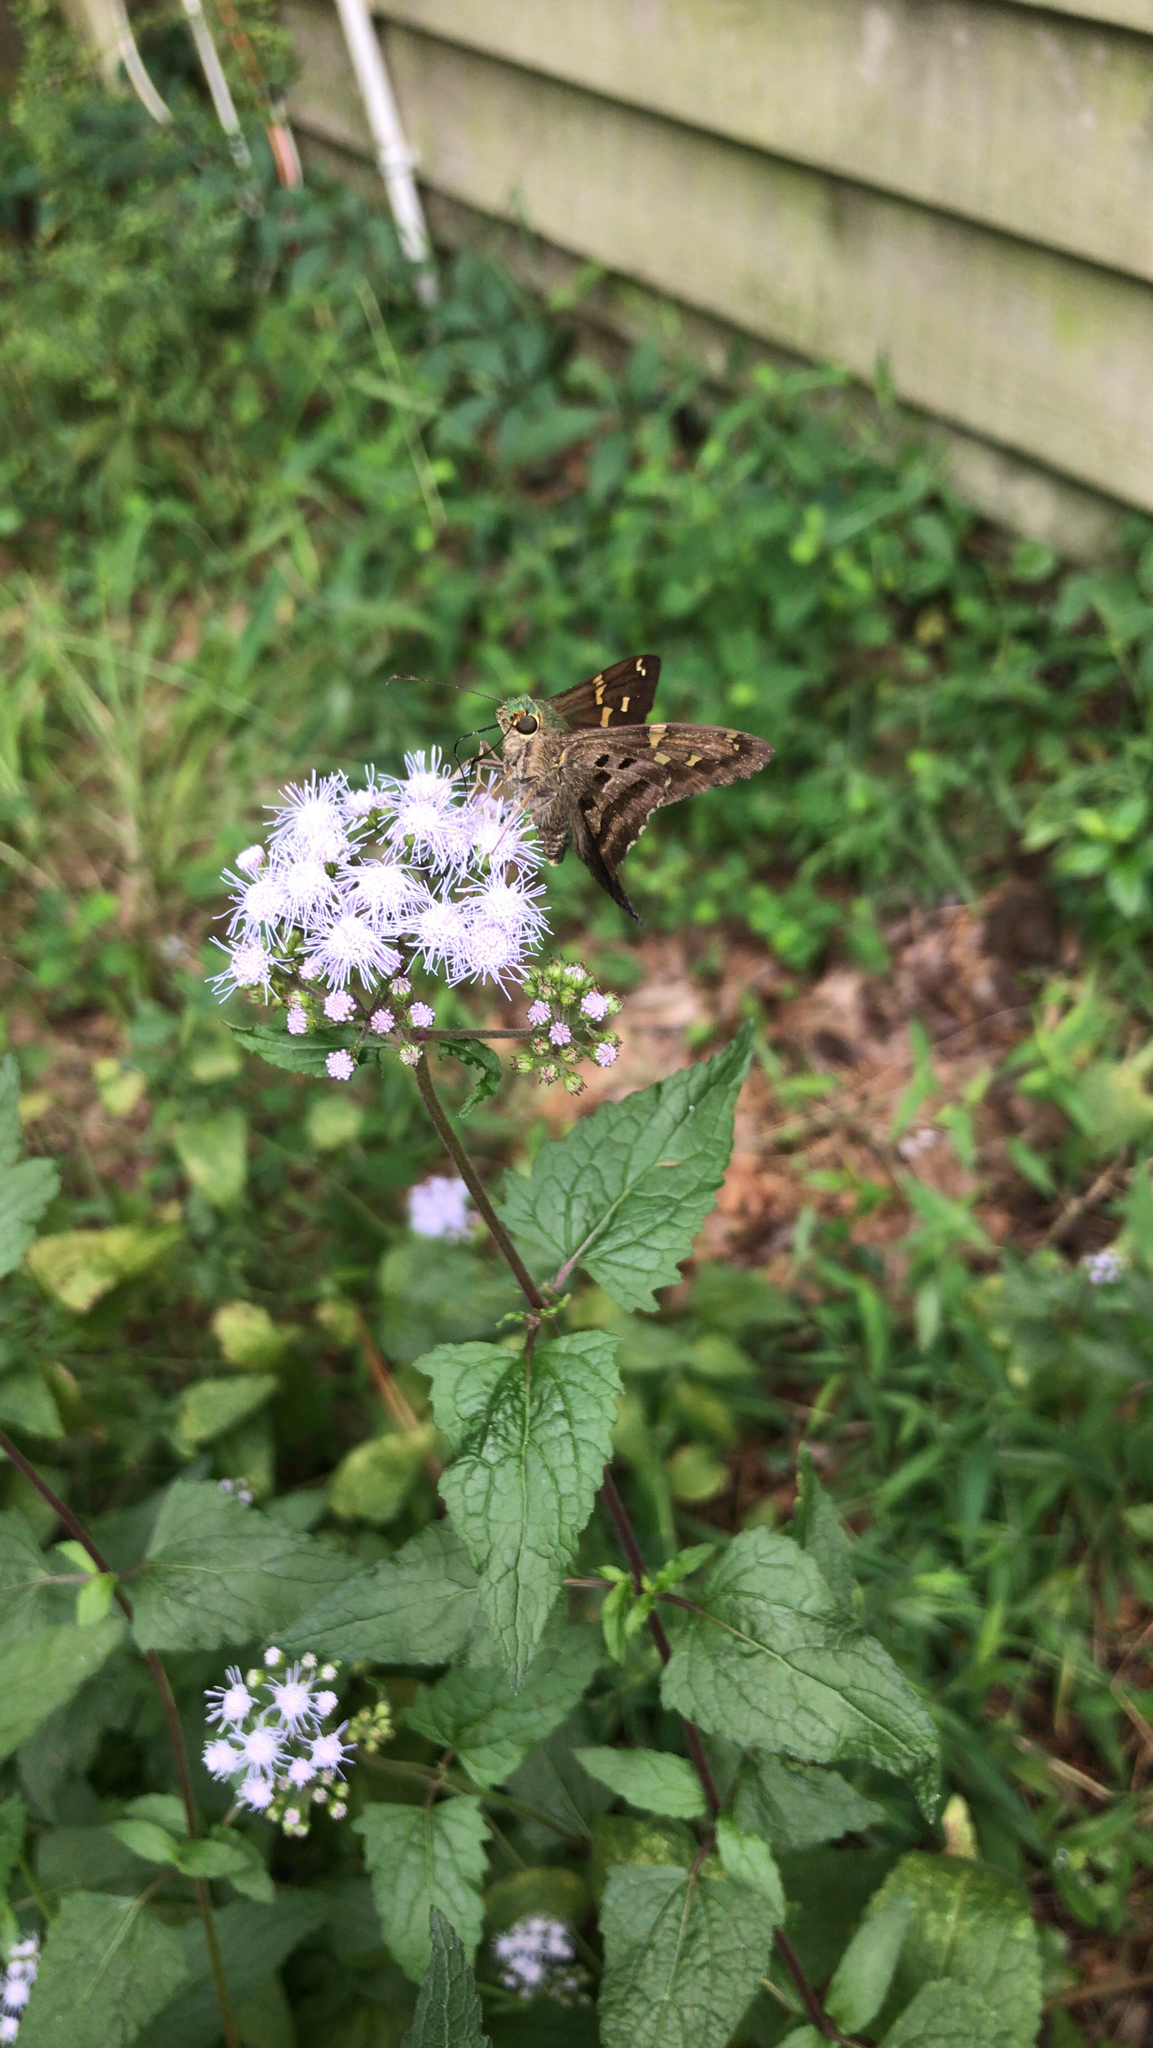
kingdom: Animalia
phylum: Arthropoda
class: Insecta
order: Lepidoptera
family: Hesperiidae
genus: Urbanus
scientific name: Urbanus proteus
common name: Long-tailed skipper
